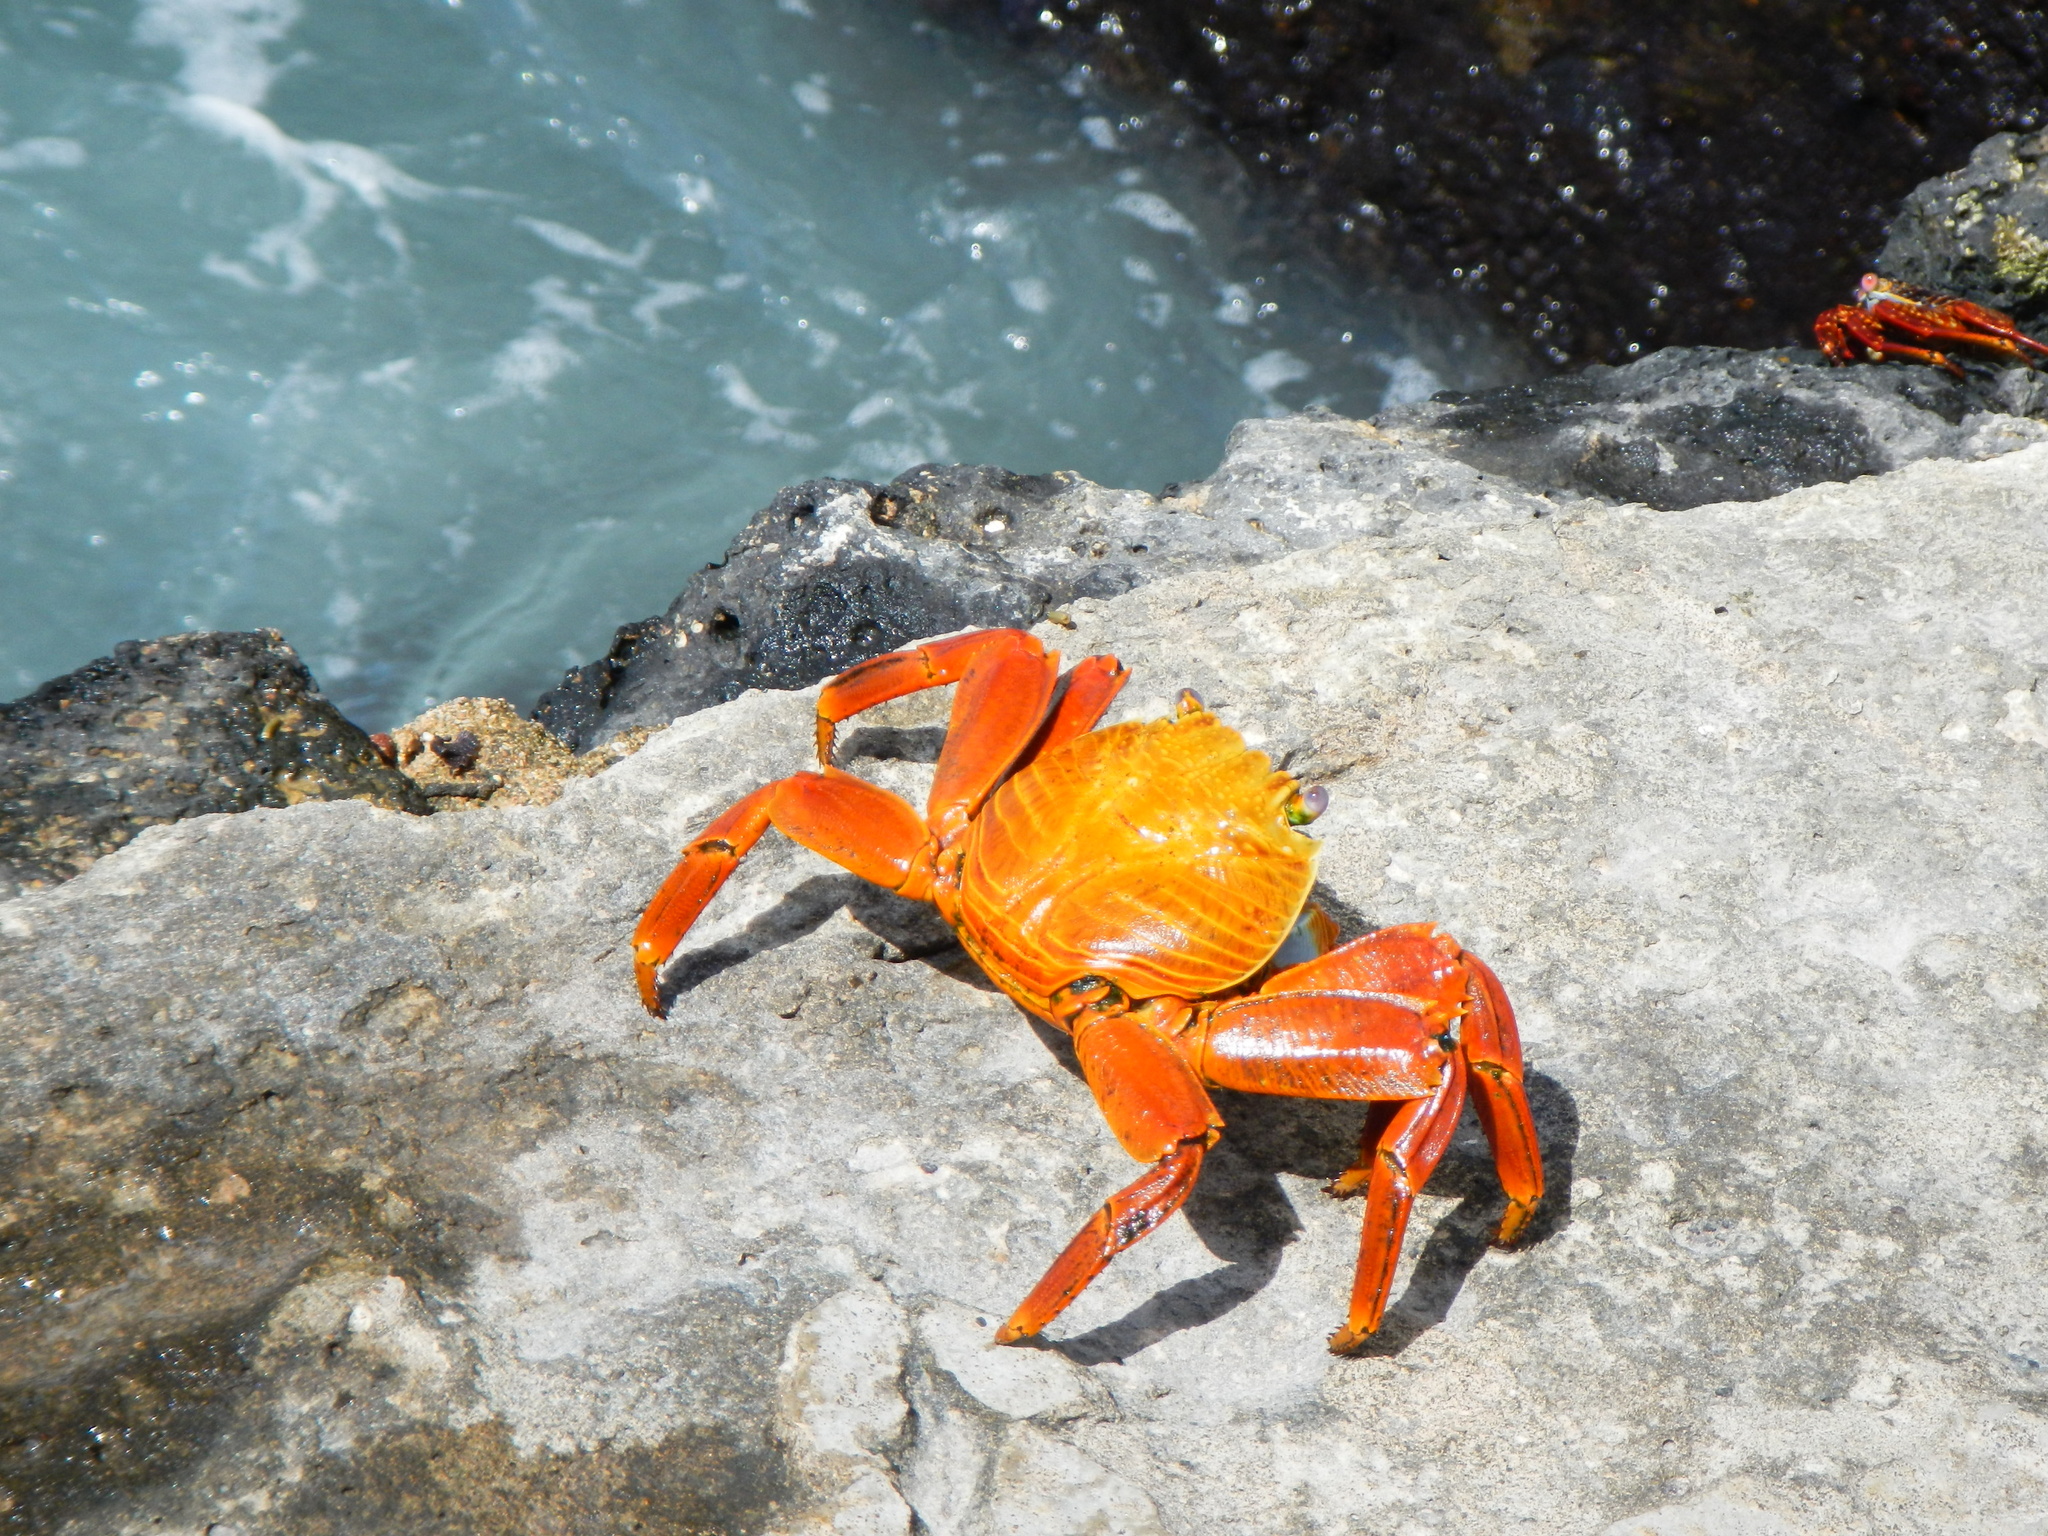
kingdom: Animalia
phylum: Arthropoda
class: Malacostraca
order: Decapoda
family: Grapsidae
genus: Grapsus
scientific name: Grapsus grapsus
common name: Sally lightfoot
